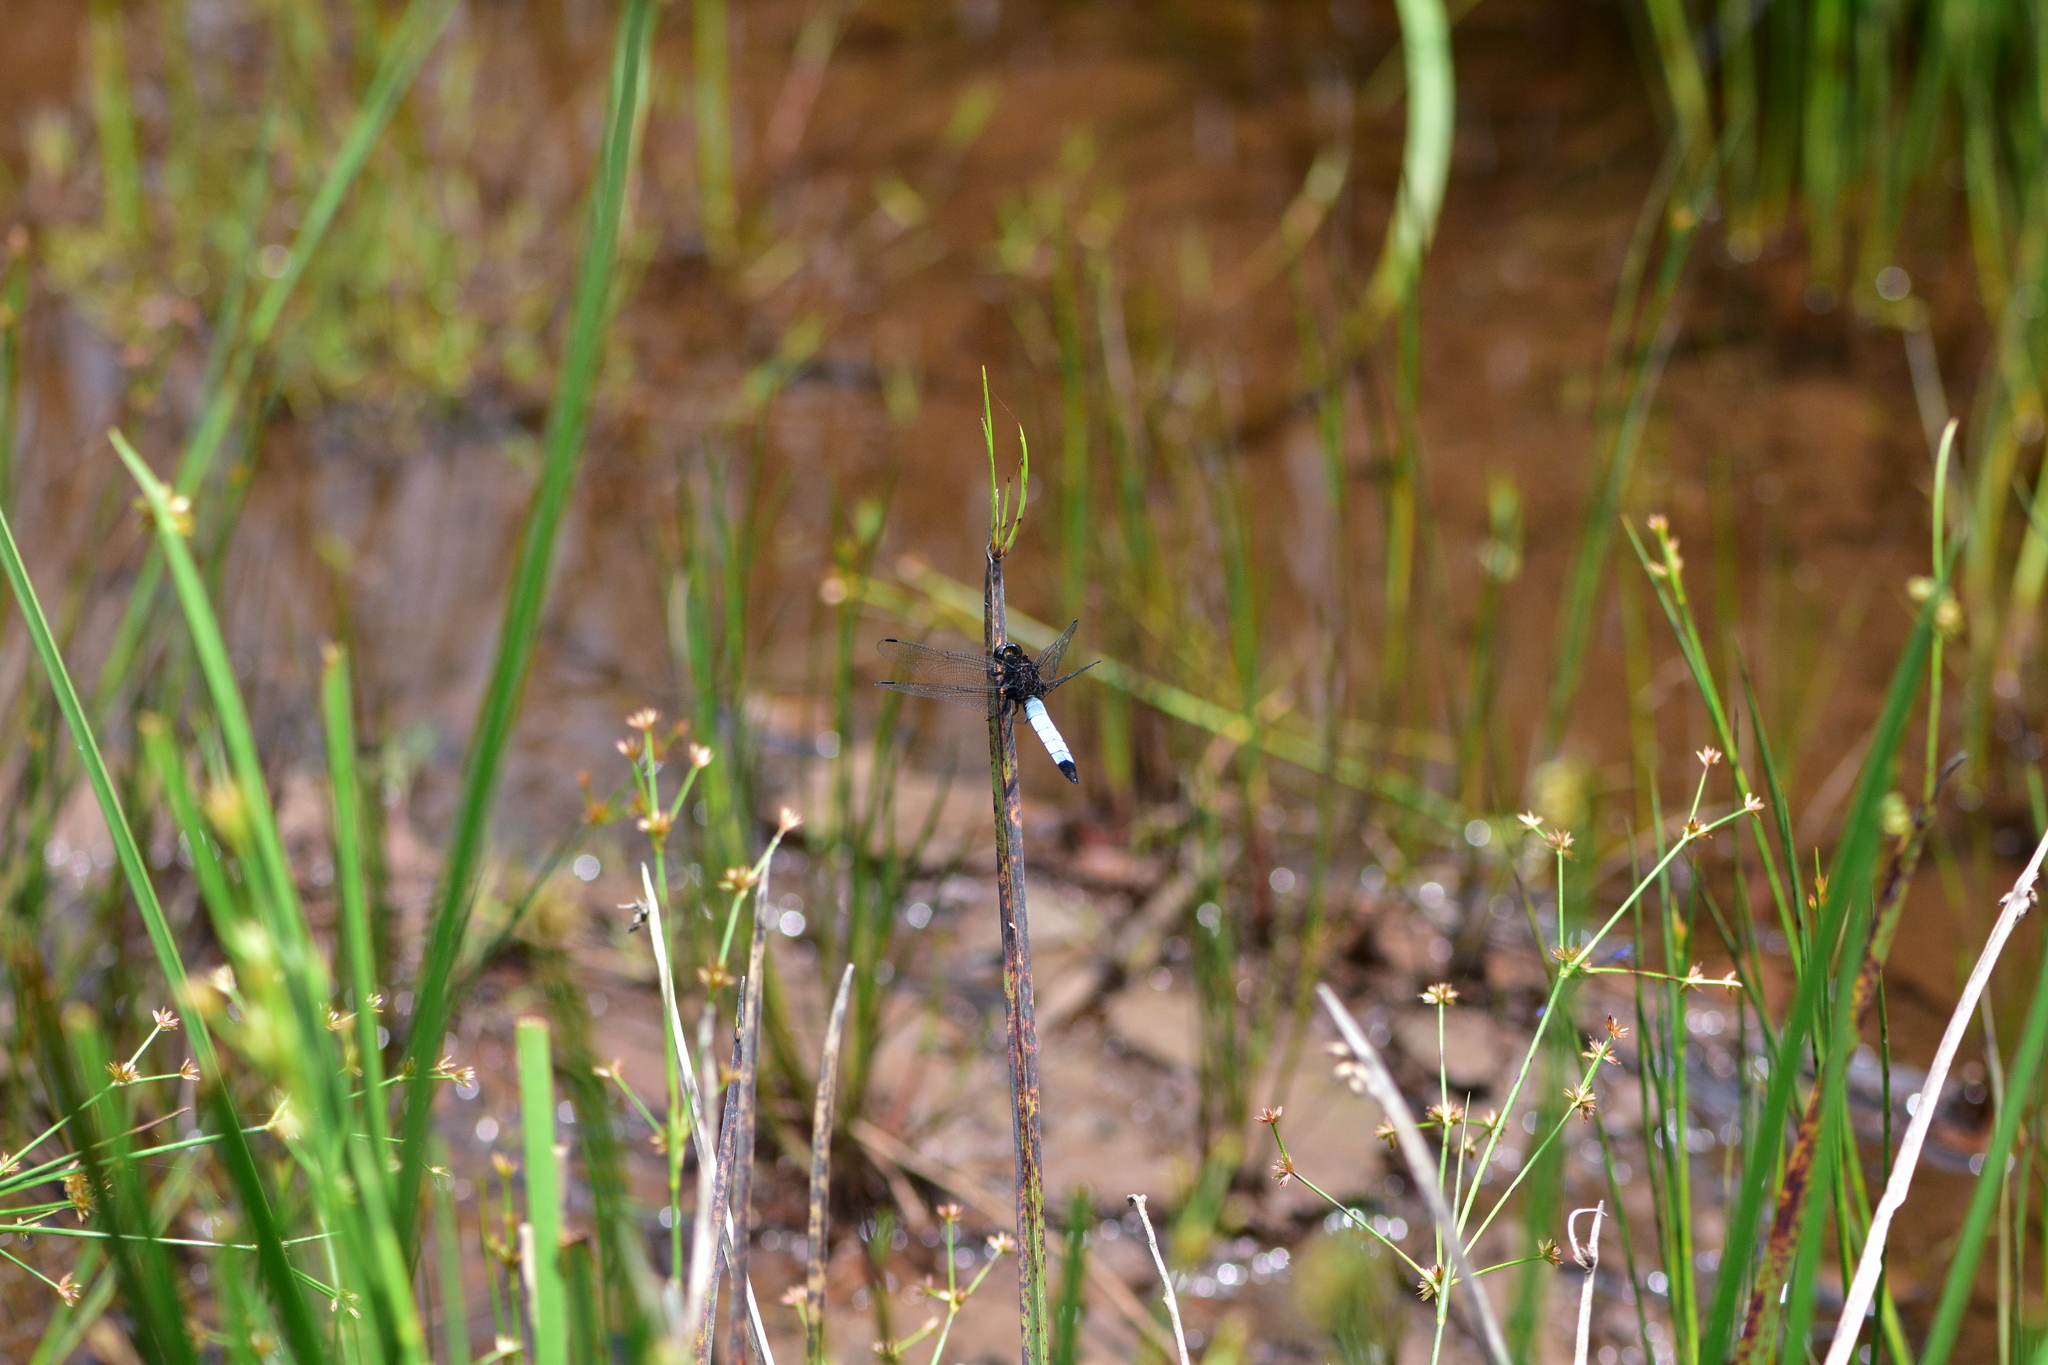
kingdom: Animalia
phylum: Arthropoda
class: Insecta
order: Odonata
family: Libellulidae
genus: Orthetrum
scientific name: Orthetrum triangulare
